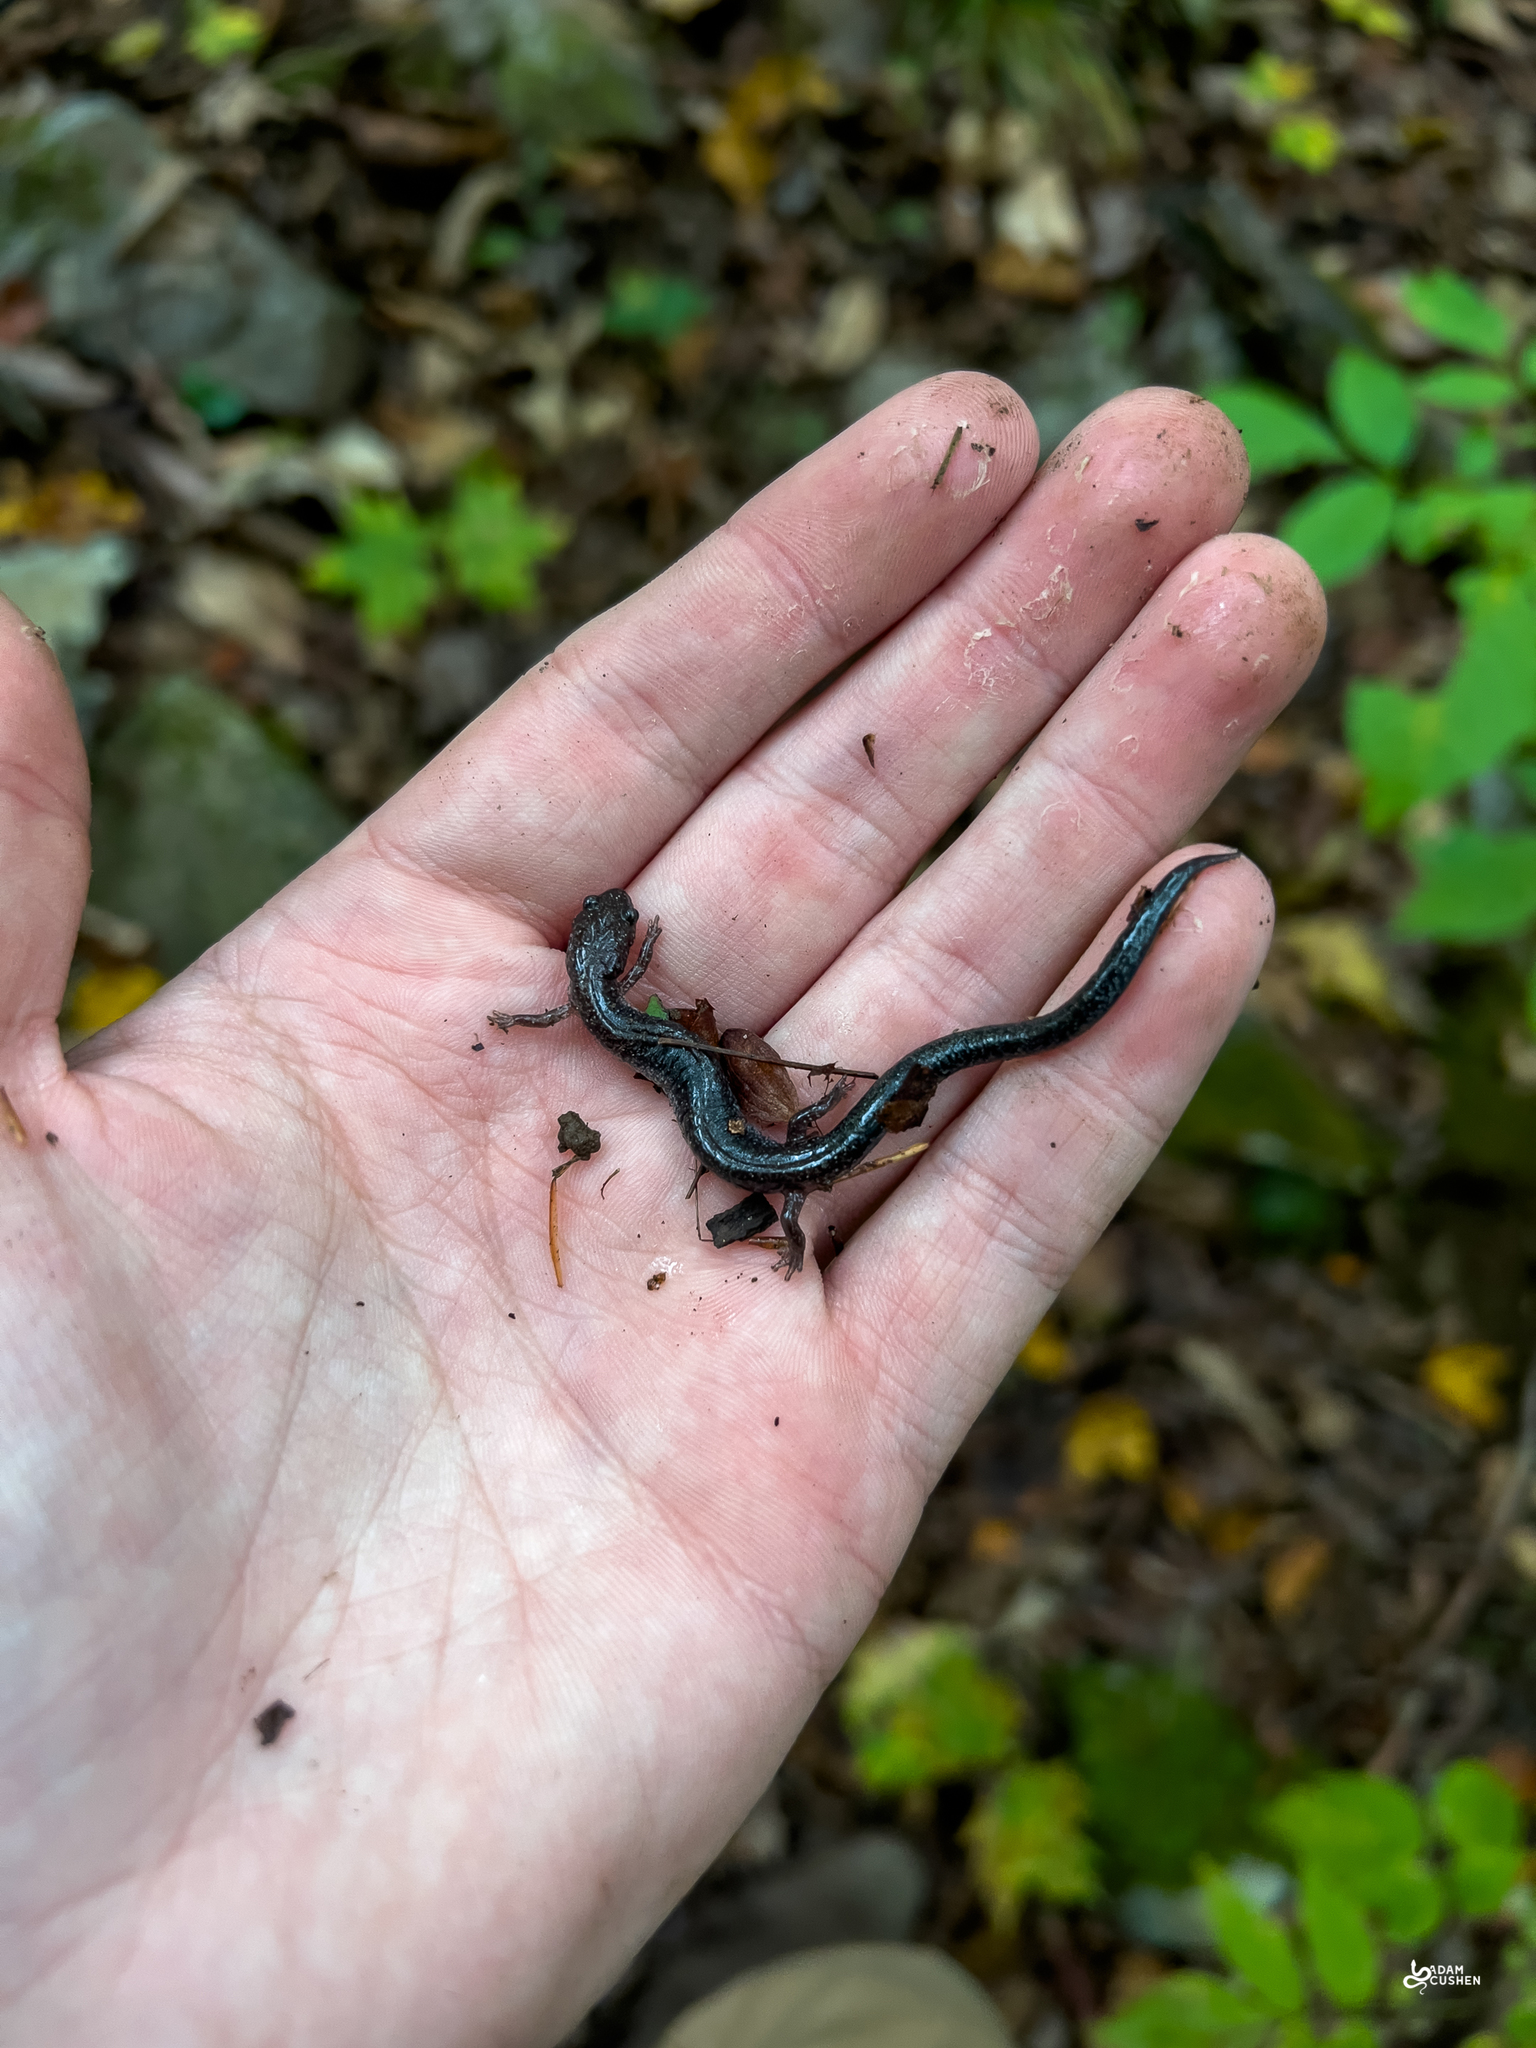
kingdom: Animalia
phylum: Chordata
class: Amphibia
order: Caudata
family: Plethodontidae
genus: Plethodon
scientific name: Plethodon cinereus
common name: Redback salamander
